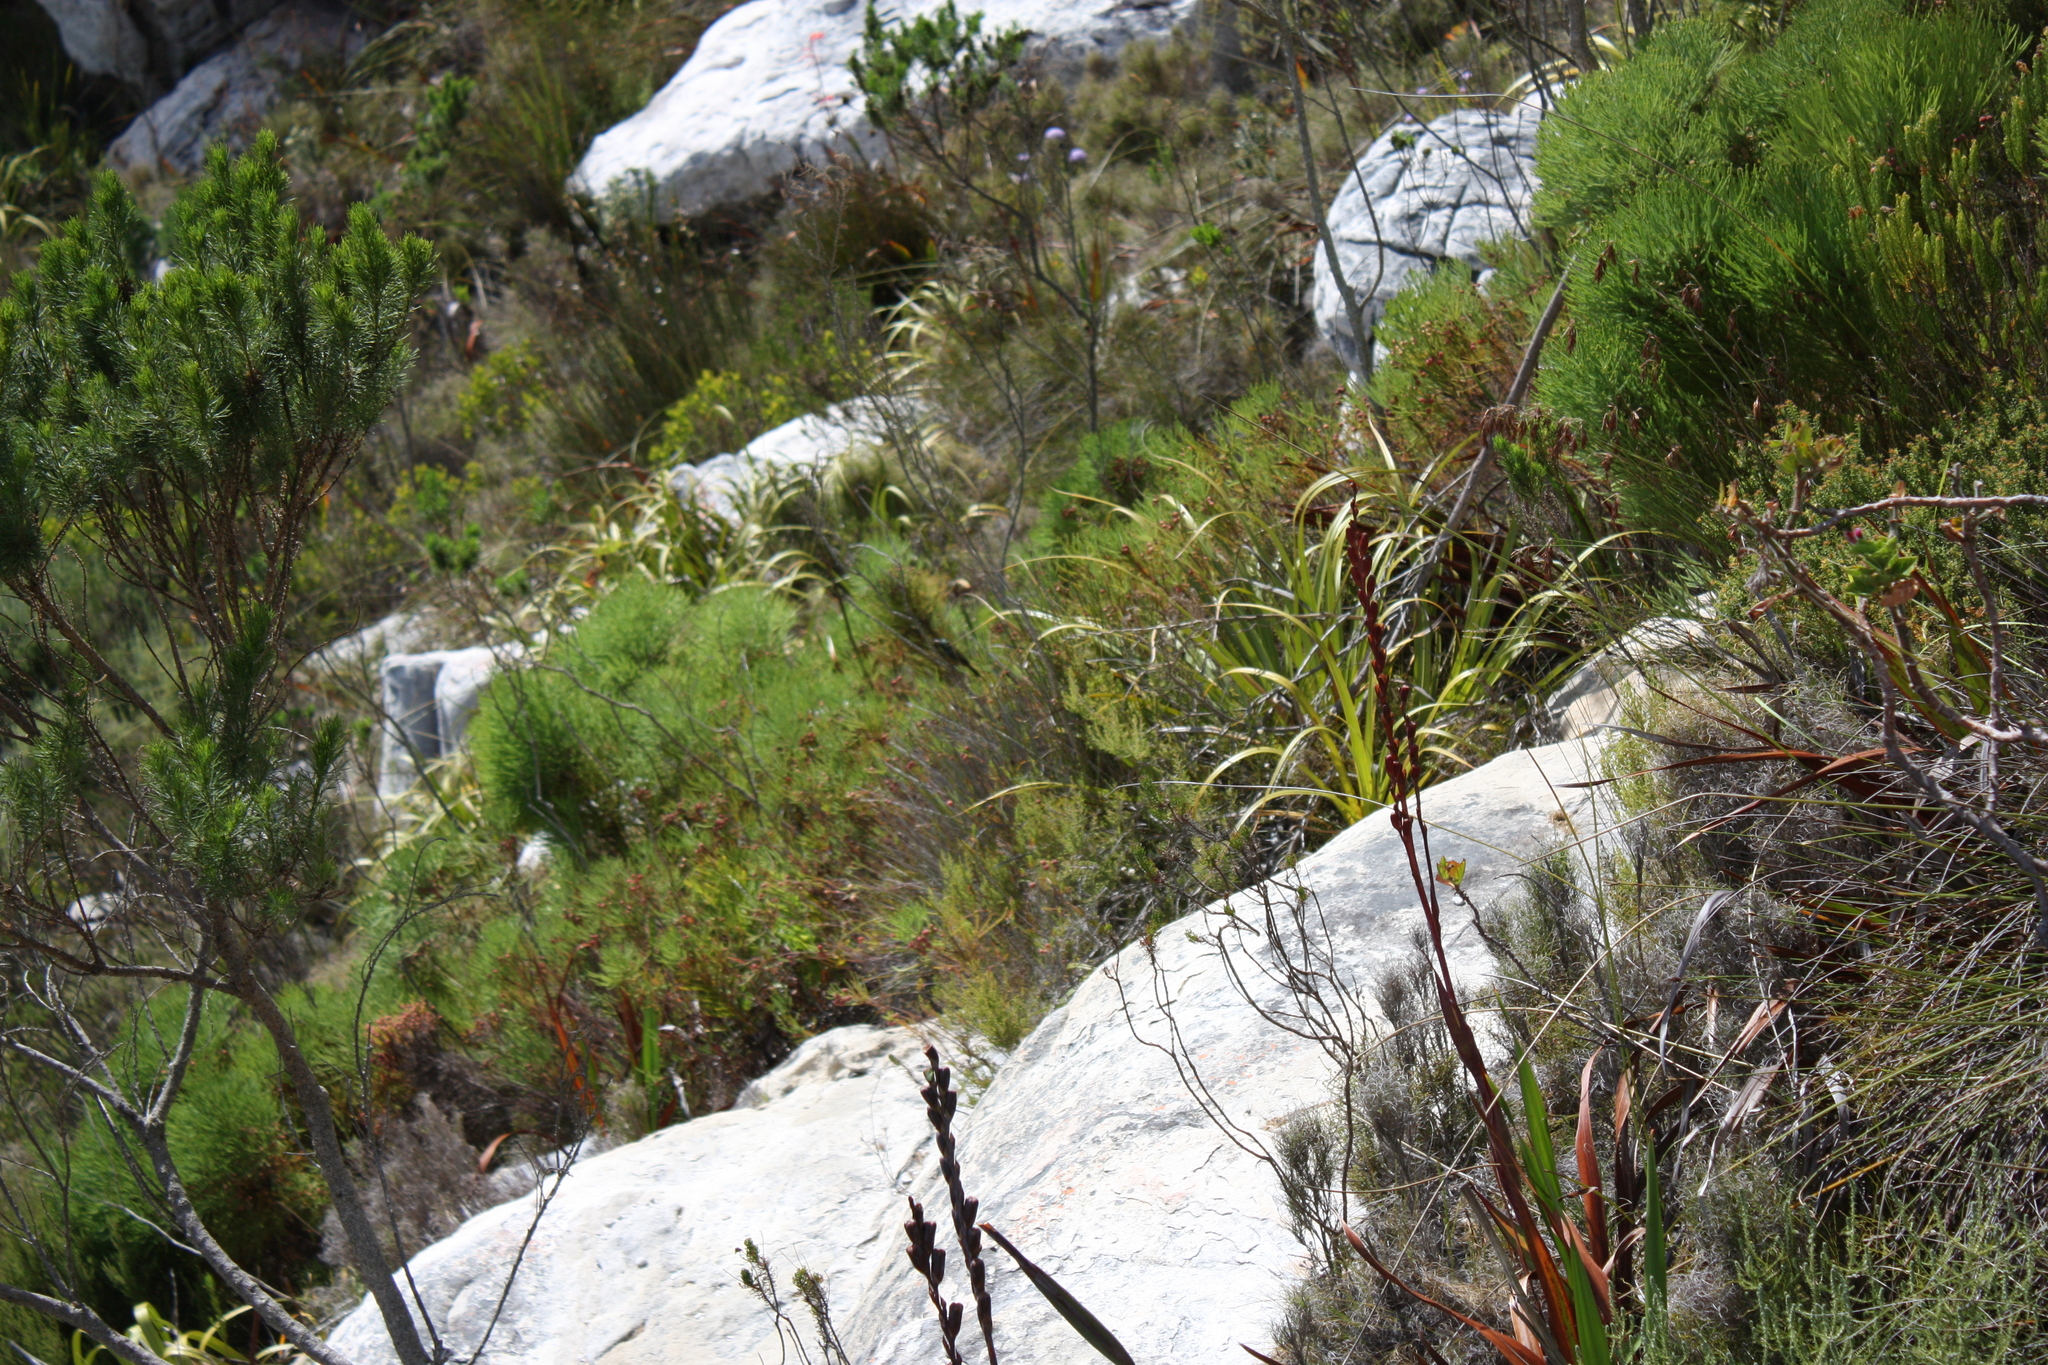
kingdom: Animalia
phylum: Chordata
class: Aves
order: Passeriformes
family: Nectariniidae
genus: Anthobaphes
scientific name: Anthobaphes violacea
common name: Orange-breasted sunbird
